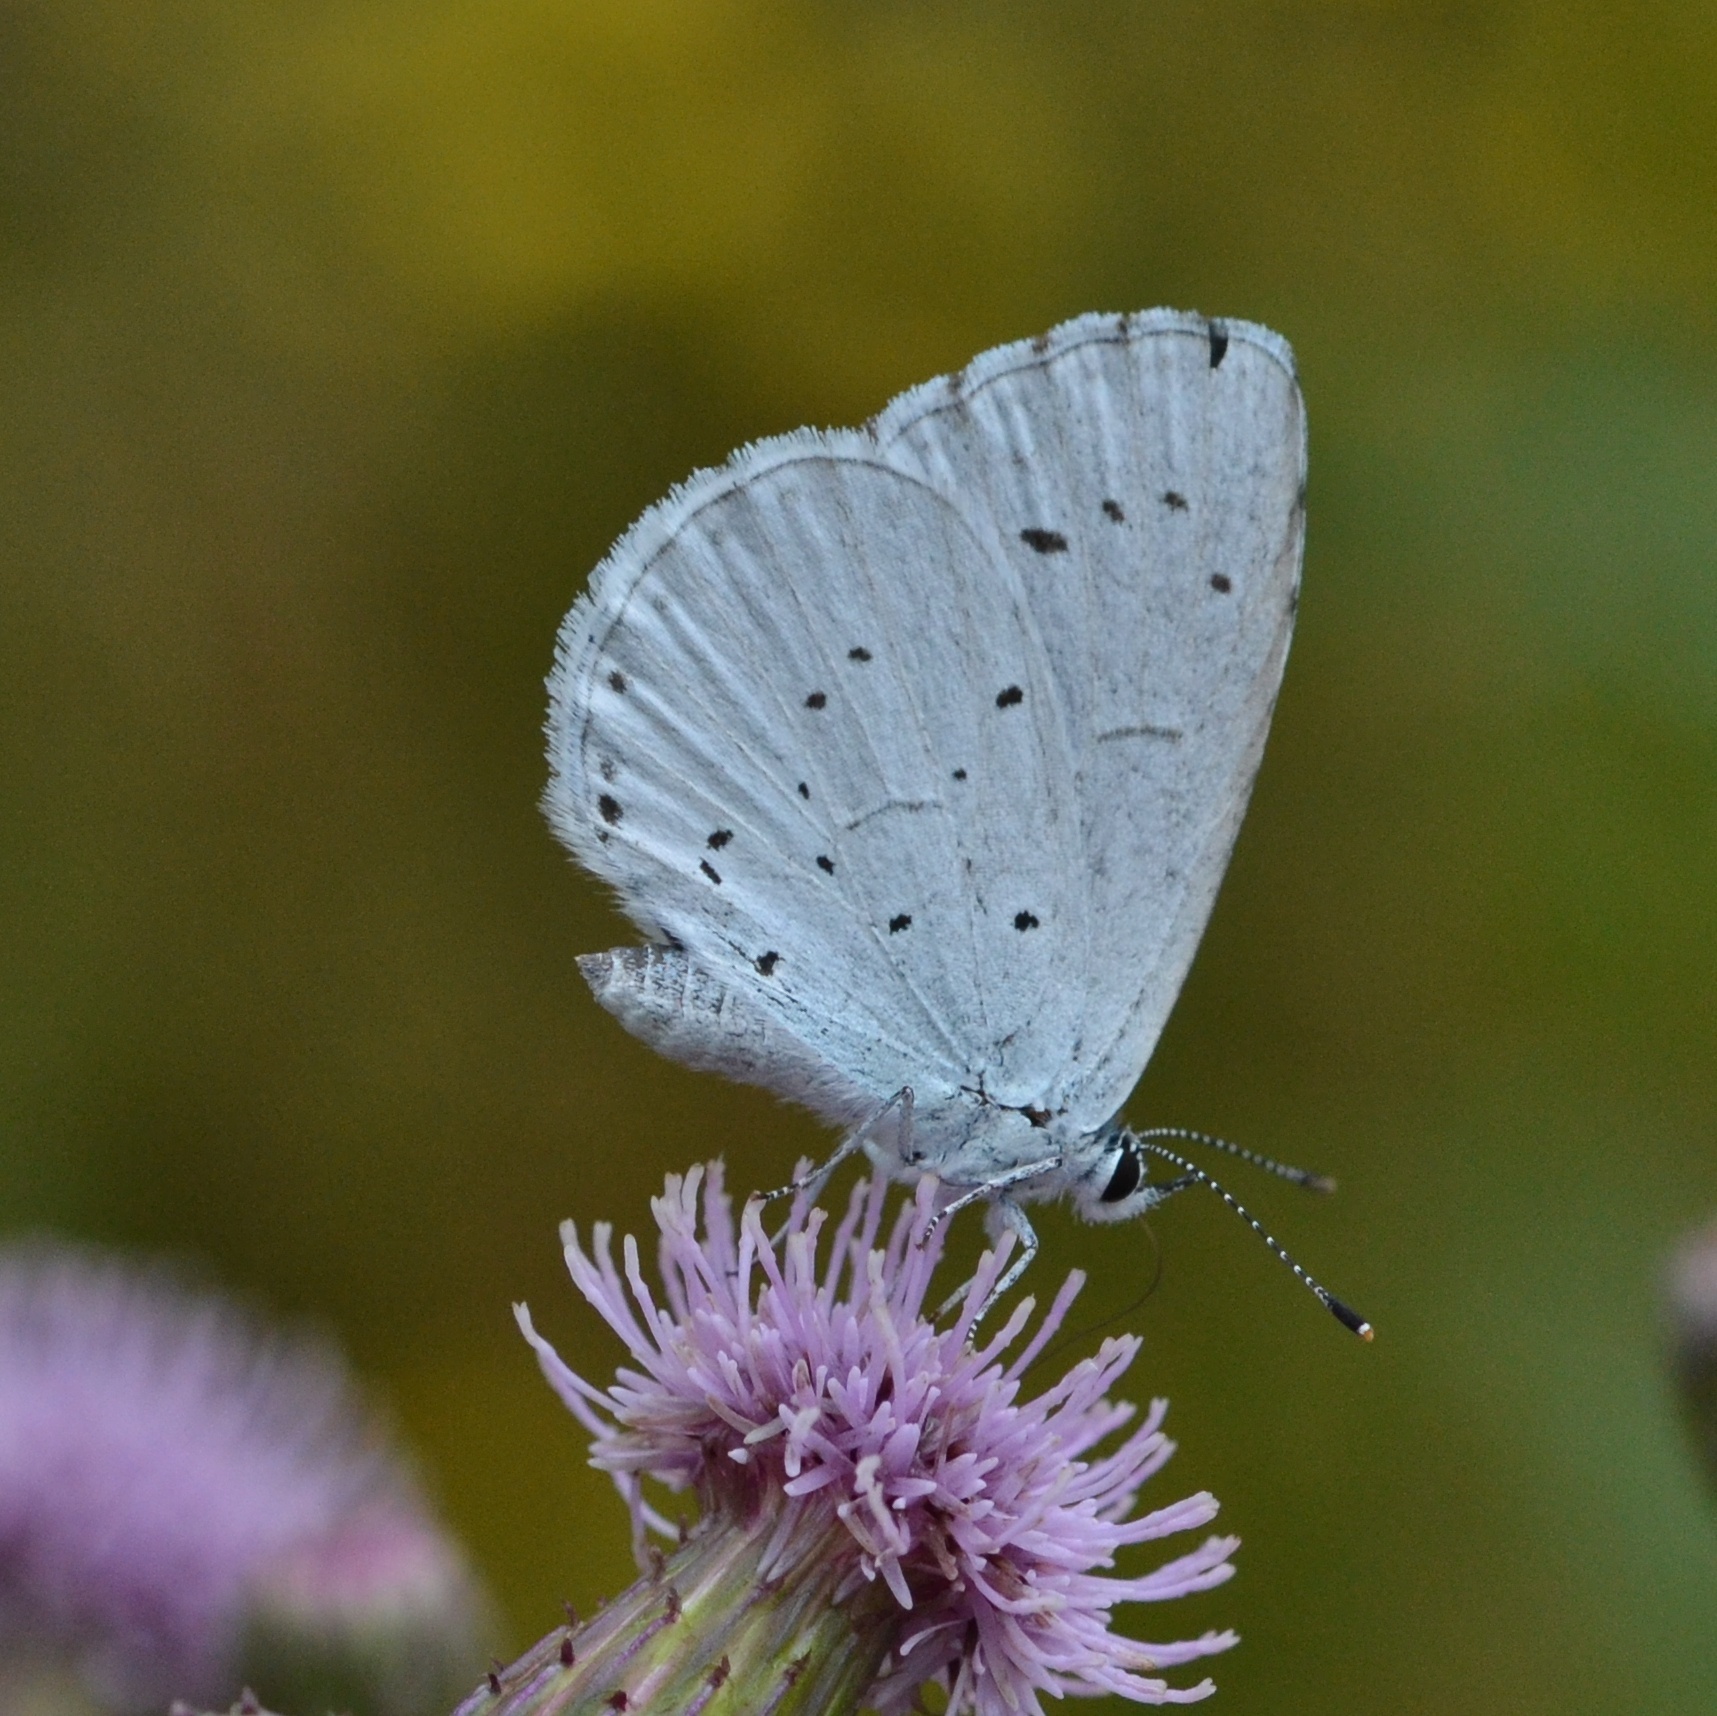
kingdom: Animalia
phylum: Arthropoda
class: Insecta
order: Lepidoptera
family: Lycaenidae
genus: Celastrina
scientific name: Celastrina argiolus
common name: Holly blue
